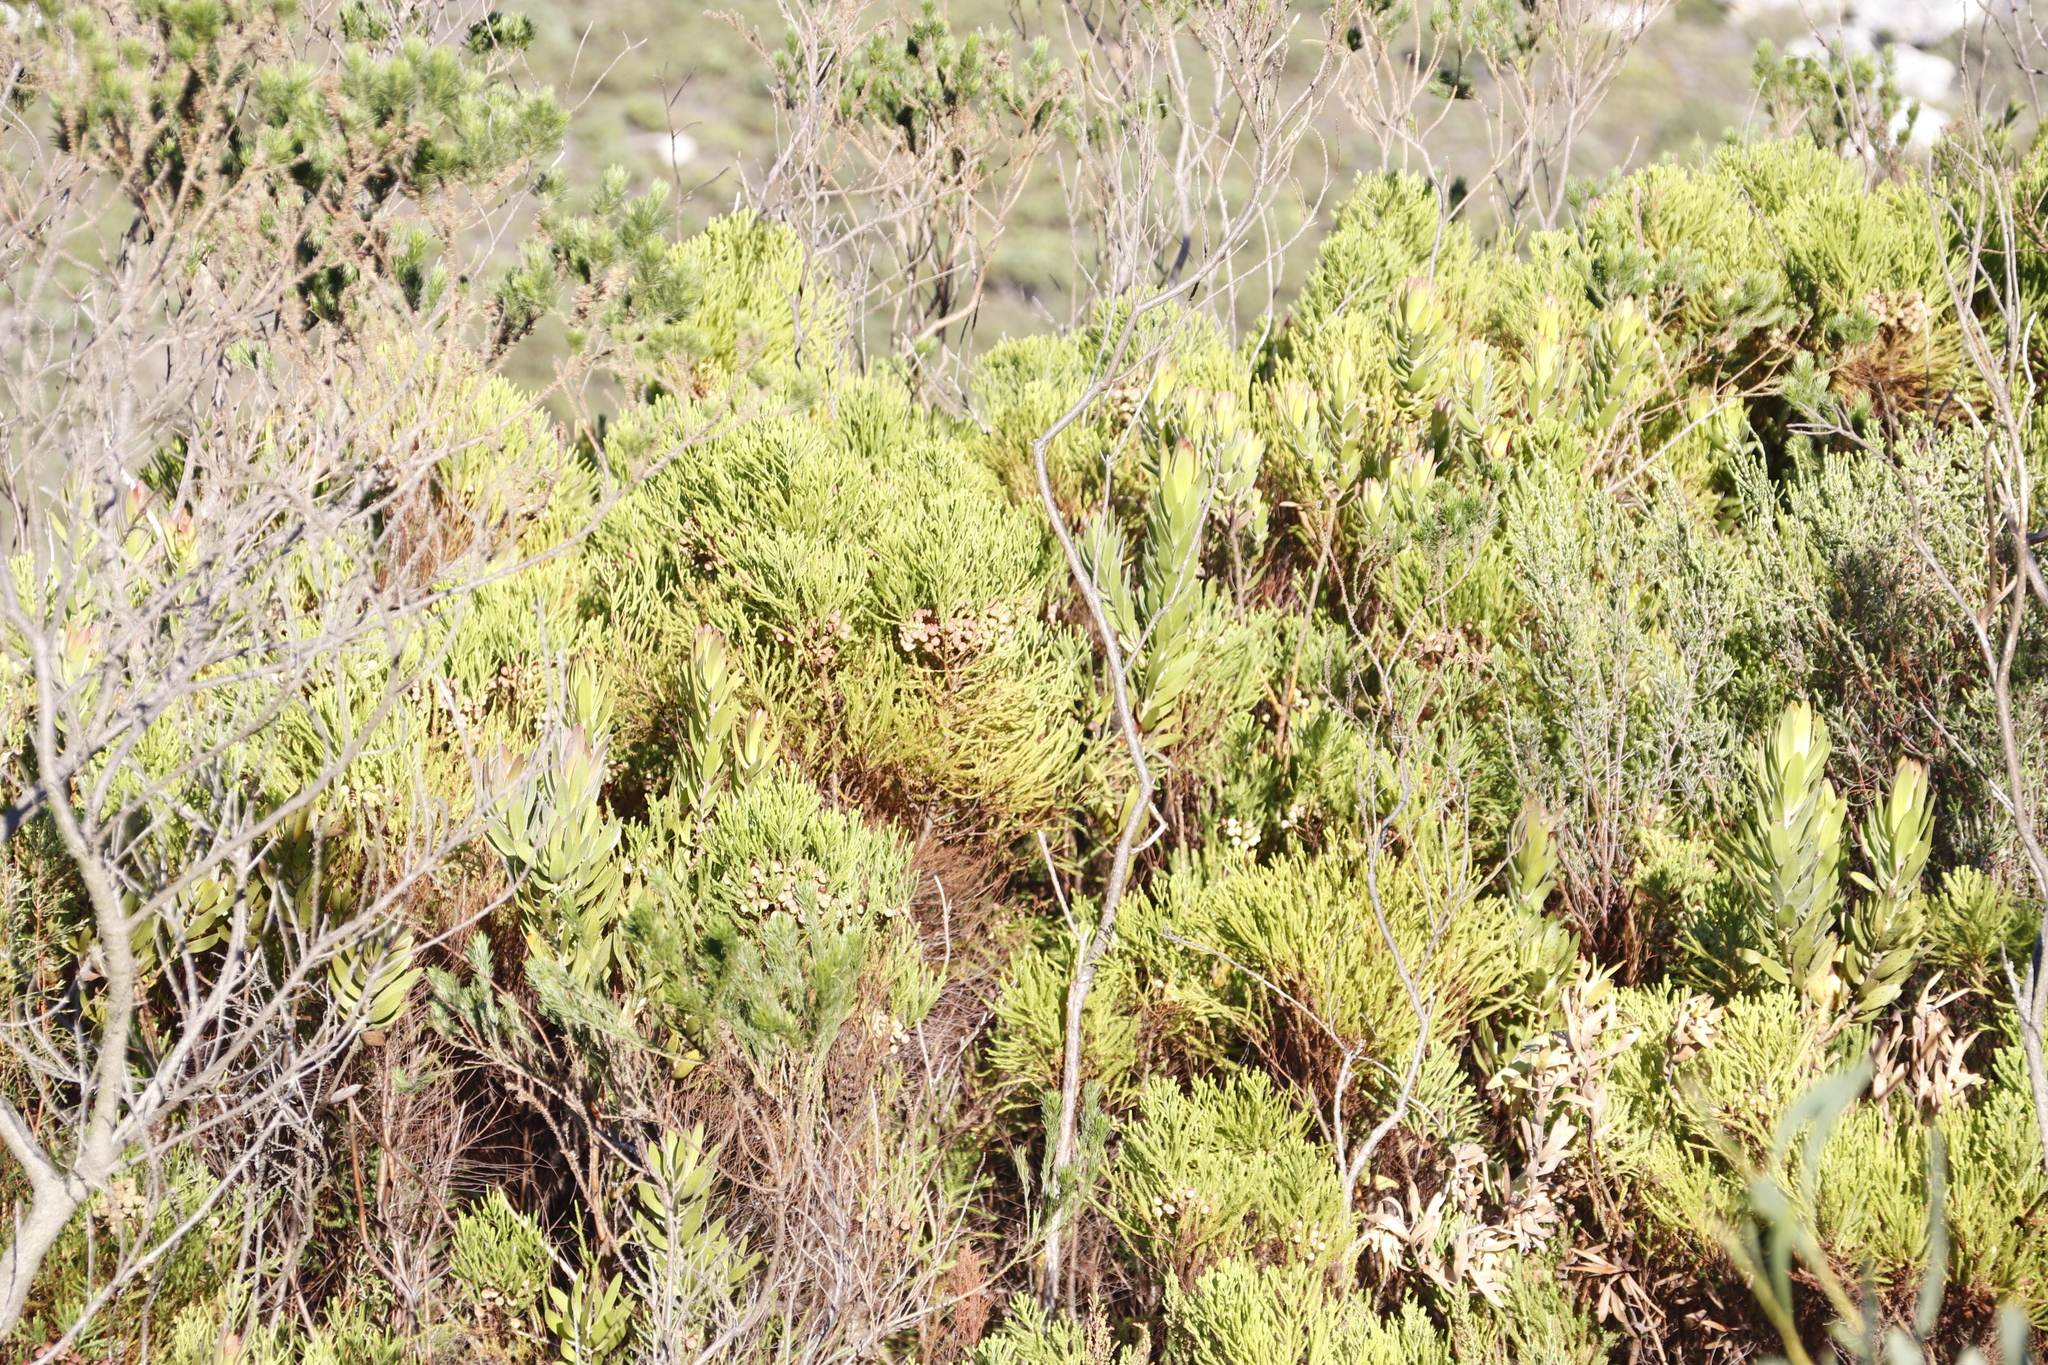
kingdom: Plantae
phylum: Tracheophyta
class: Magnoliopsida
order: Bruniales
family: Bruniaceae
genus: Berzelia
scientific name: Berzelia lanuginosa
